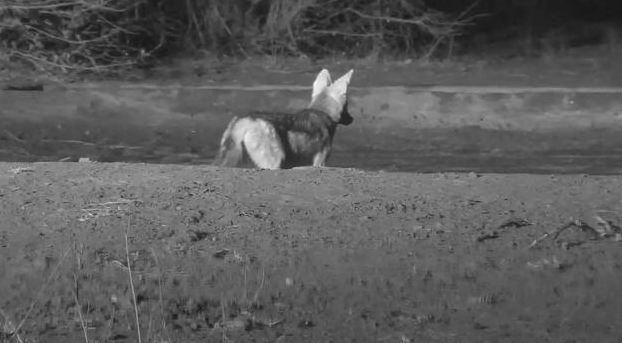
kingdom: Animalia
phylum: Chordata
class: Mammalia
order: Carnivora
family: Canidae
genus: Lupulella
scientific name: Lupulella
